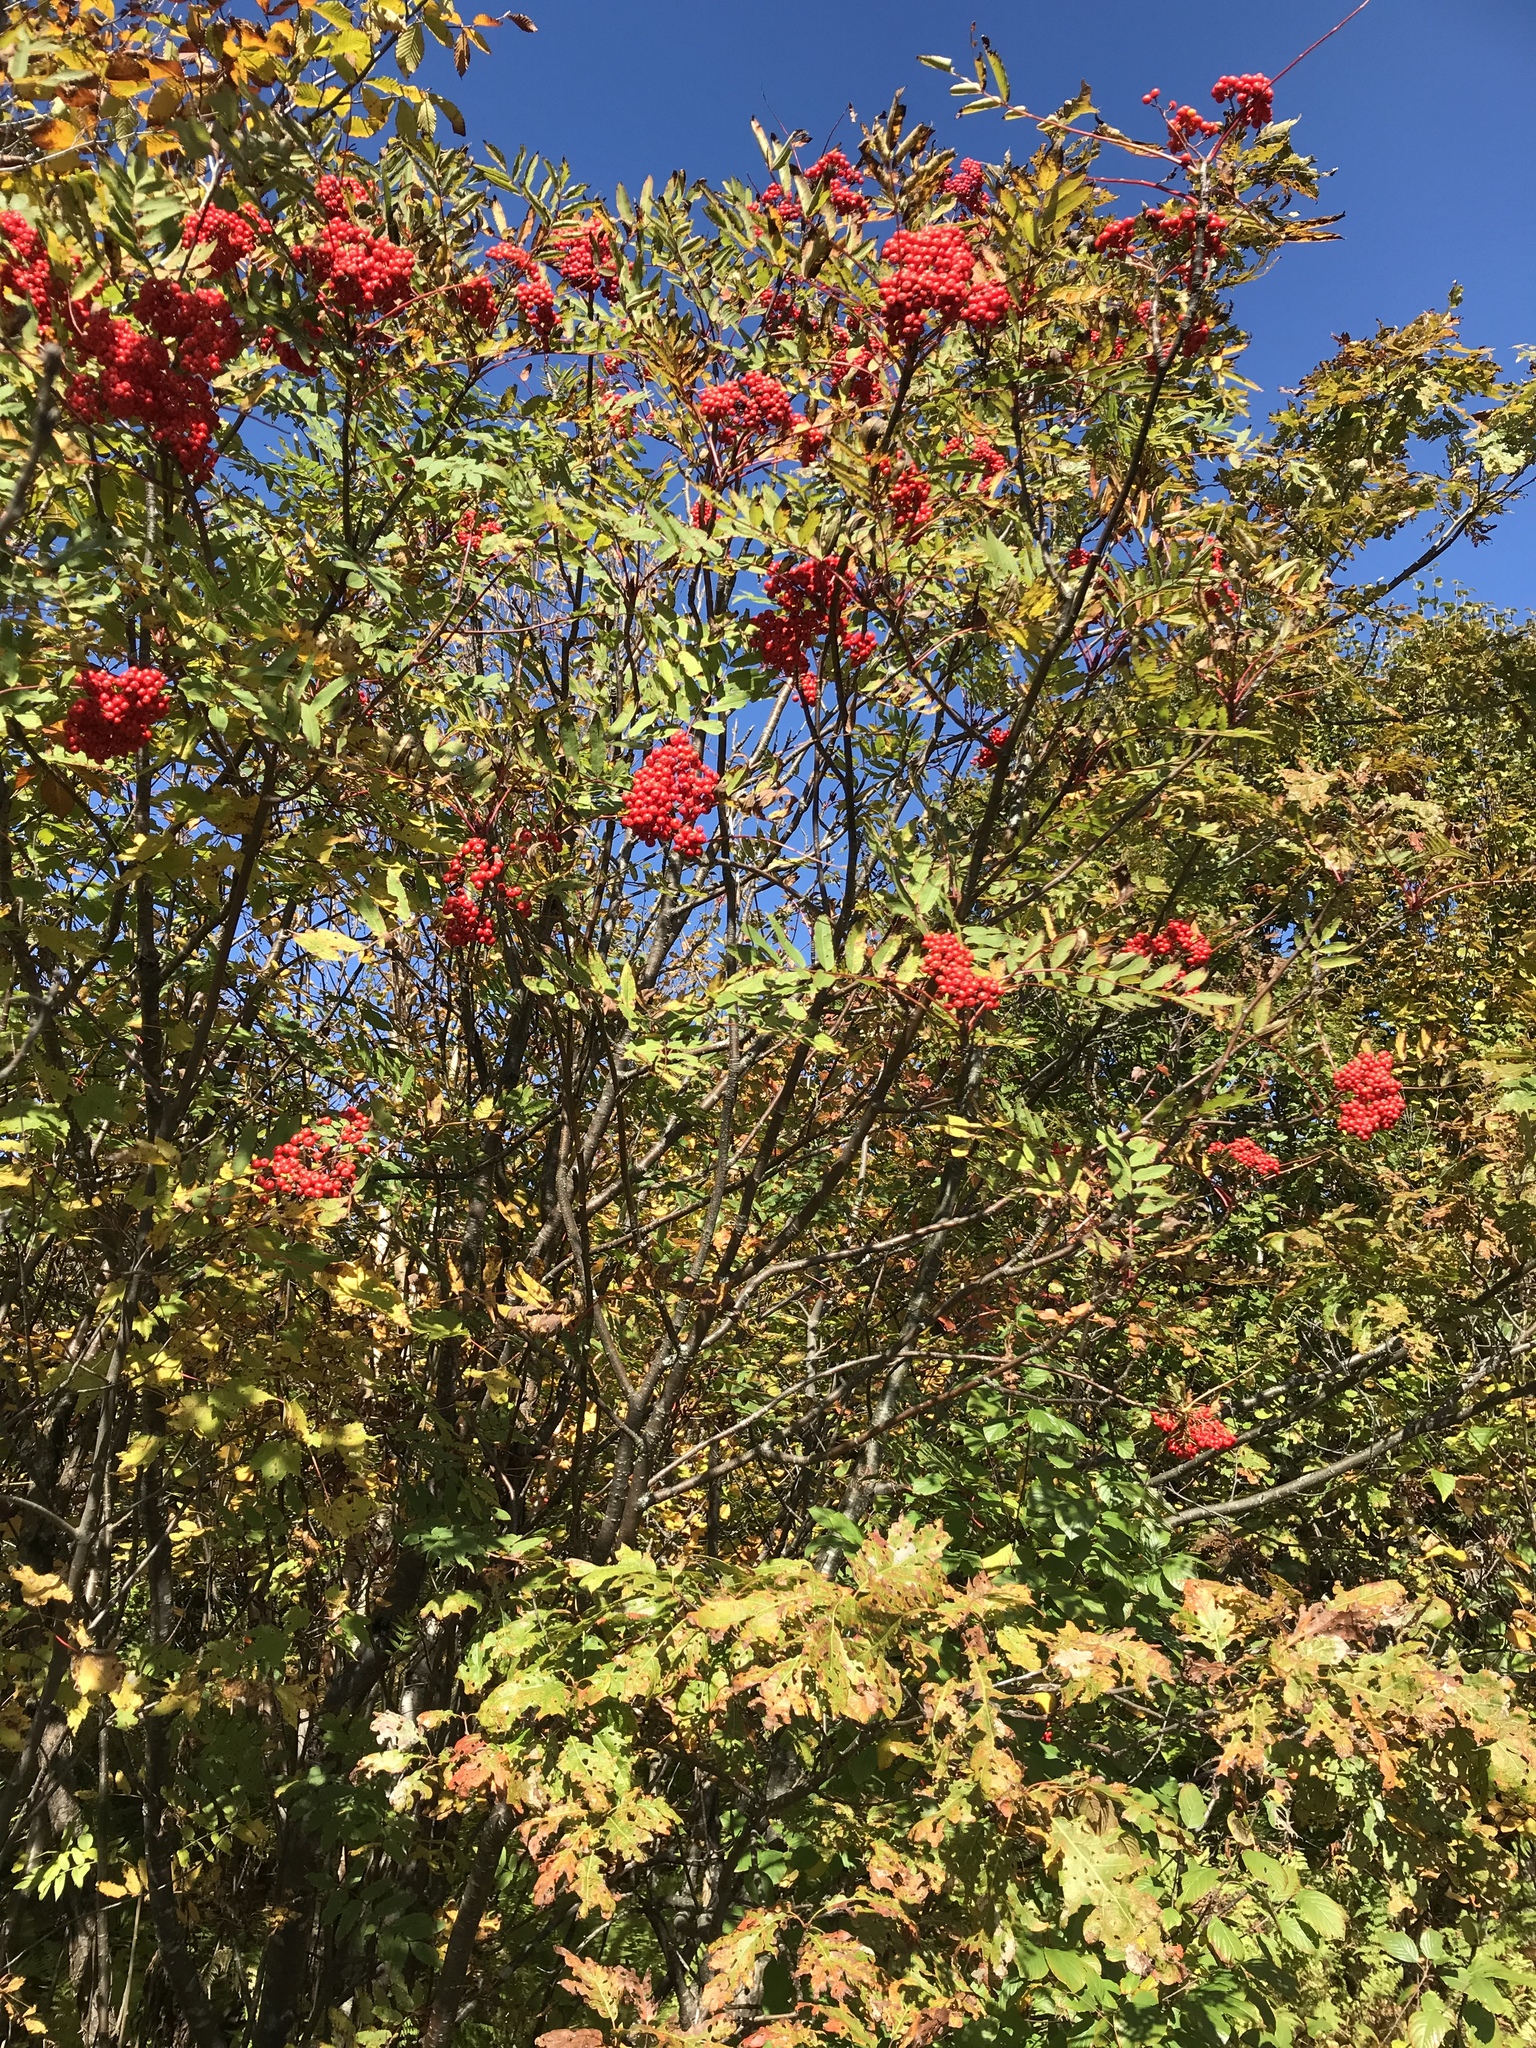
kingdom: Plantae
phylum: Tracheophyta
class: Magnoliopsida
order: Rosales
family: Rosaceae
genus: Sorbus
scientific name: Sorbus americana
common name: American mountain-ash
